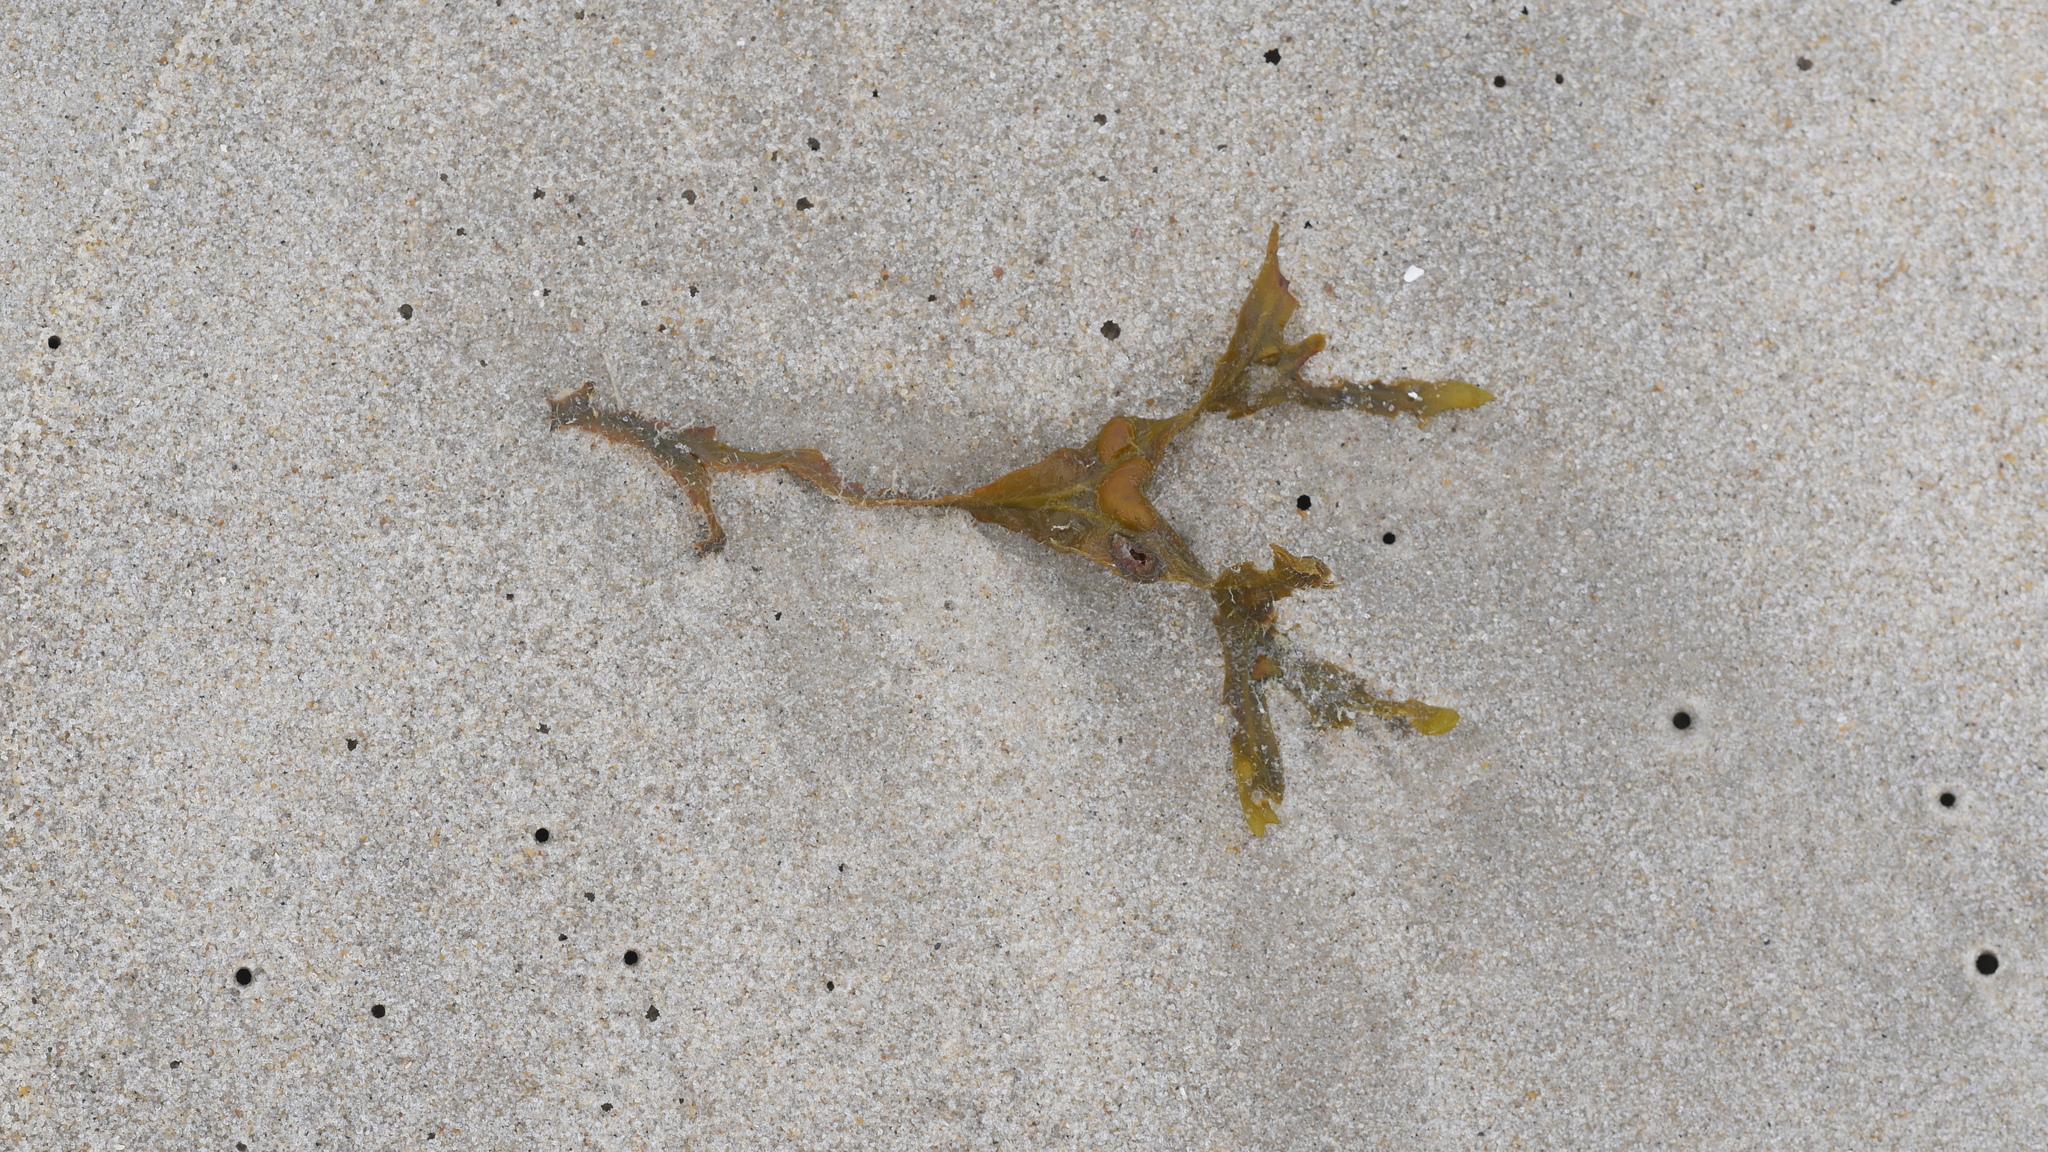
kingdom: Chromista
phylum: Ochrophyta
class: Phaeophyceae
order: Fucales
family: Fucaceae
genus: Fucus
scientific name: Fucus vesiculosus
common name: Bladder wrack
